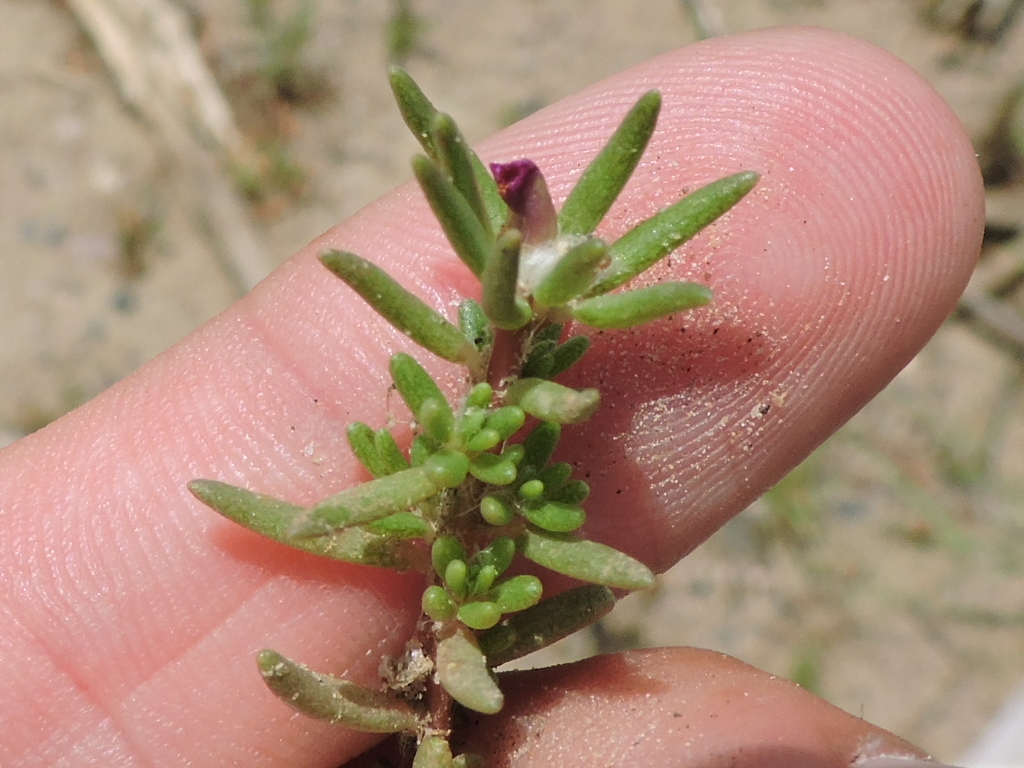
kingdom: Plantae
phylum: Tracheophyta
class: Magnoliopsida
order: Caryophyllales
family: Portulacaceae
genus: Portulaca
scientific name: Portulaca pilosa
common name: Kiss me quick
